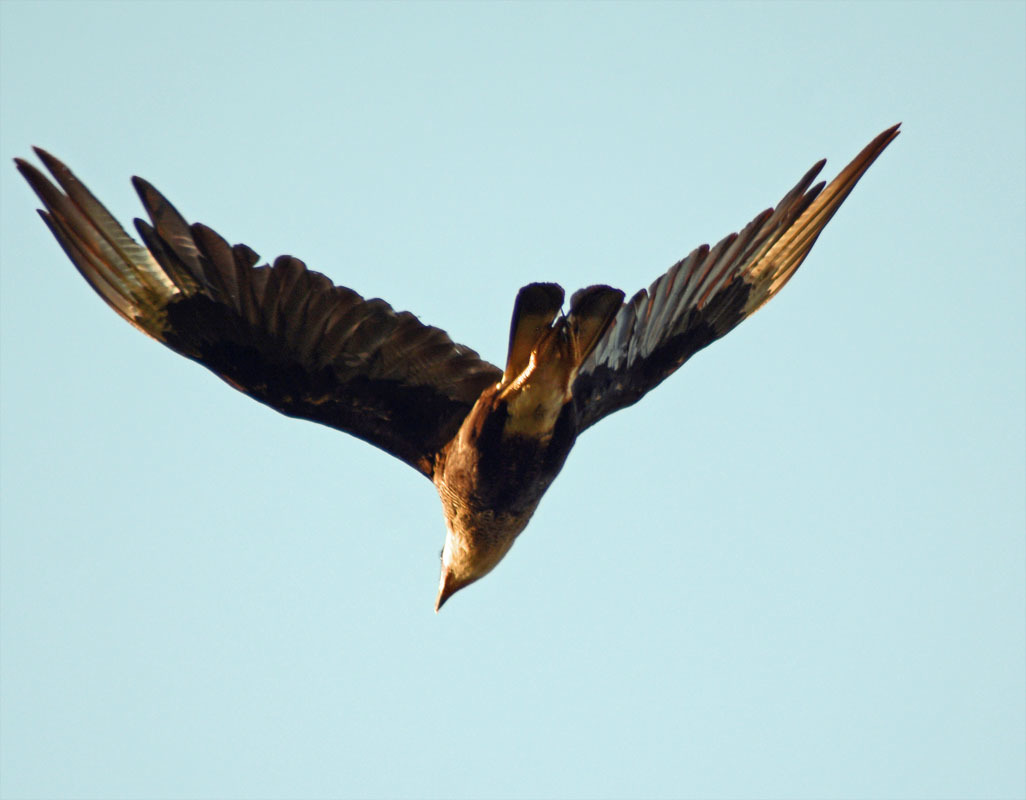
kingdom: Animalia
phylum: Chordata
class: Aves
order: Falconiformes
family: Falconidae
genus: Caracara
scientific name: Caracara plancus
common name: Southern caracara
